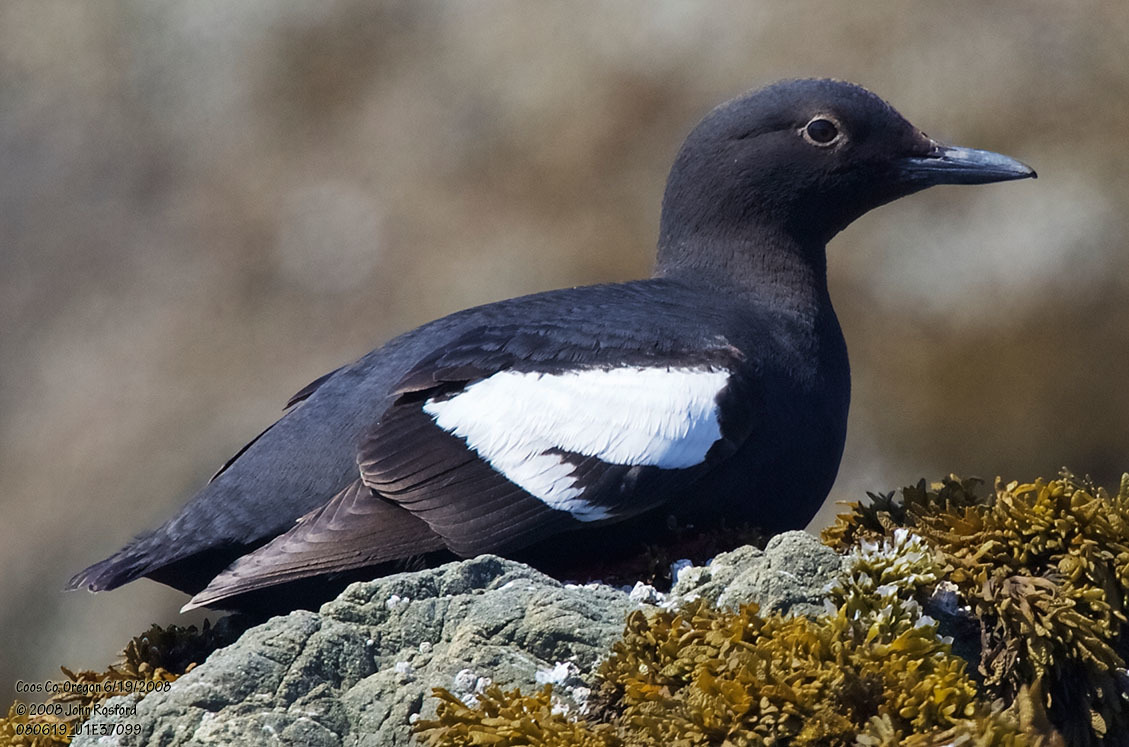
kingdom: Animalia
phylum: Chordata
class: Aves
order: Charadriiformes
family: Alcidae
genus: Cepphus
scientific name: Cepphus columba
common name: Pigeon guillemot
